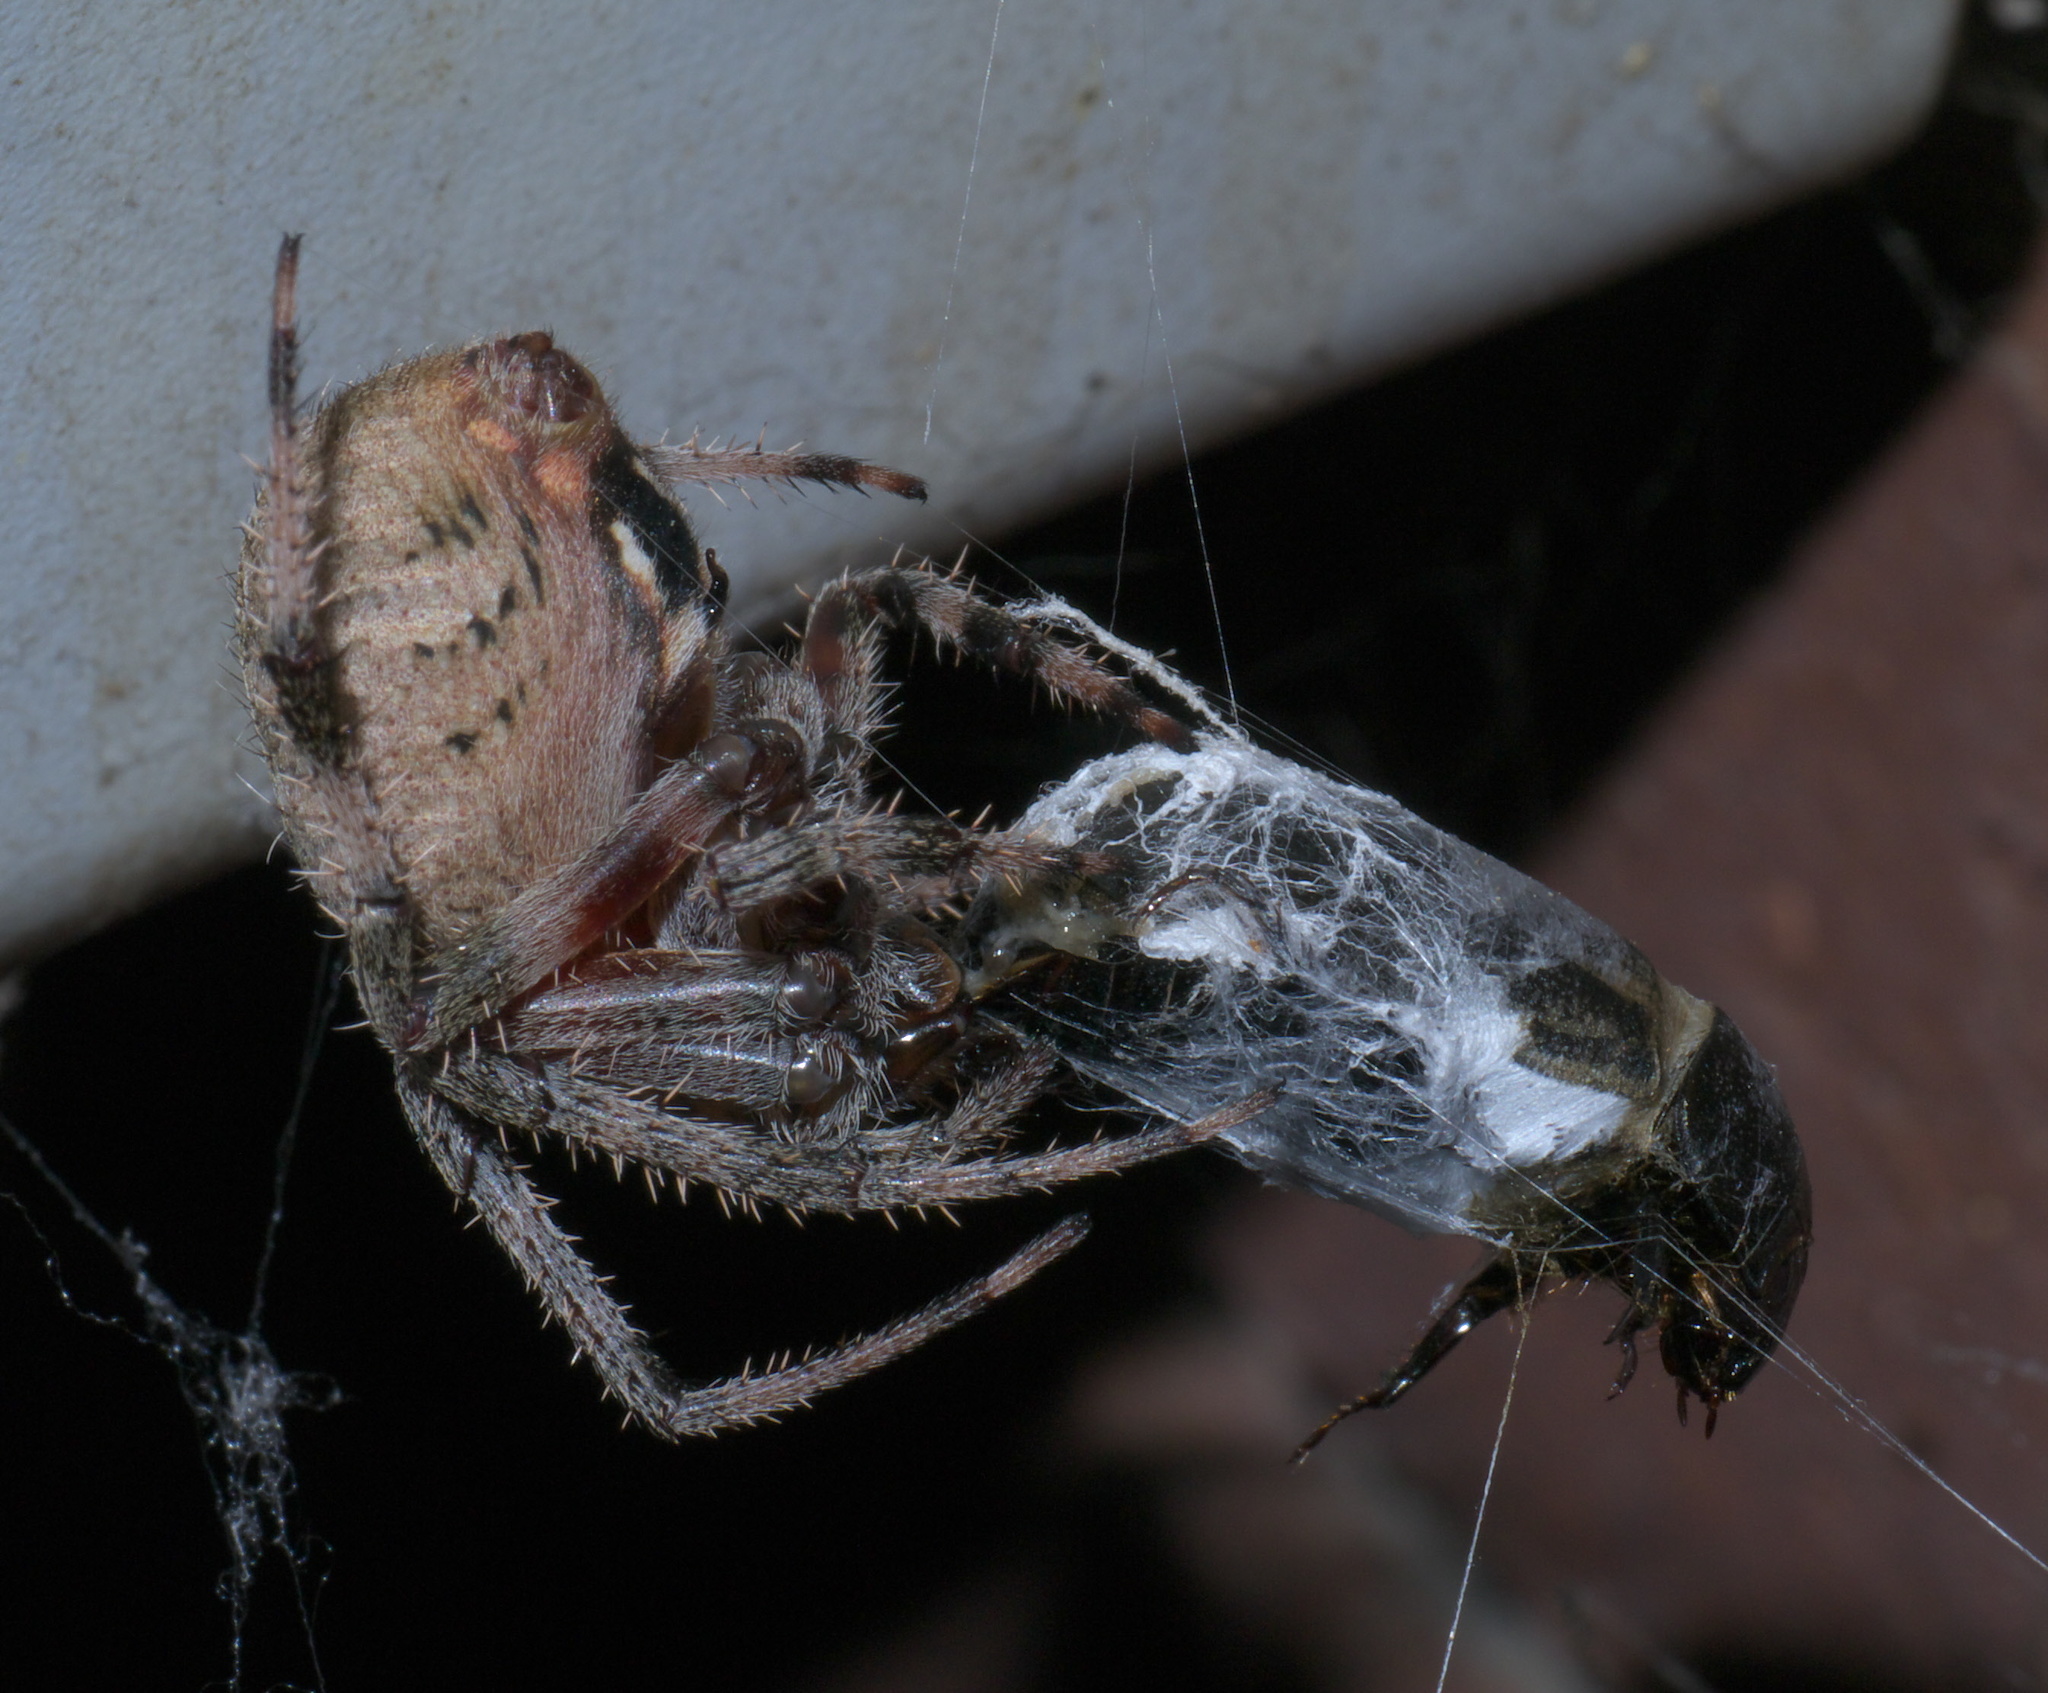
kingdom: Animalia
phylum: Arthropoda
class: Arachnida
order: Araneae
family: Araneidae
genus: Neoscona
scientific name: Neoscona crucifera
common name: Spotted orbweaver
